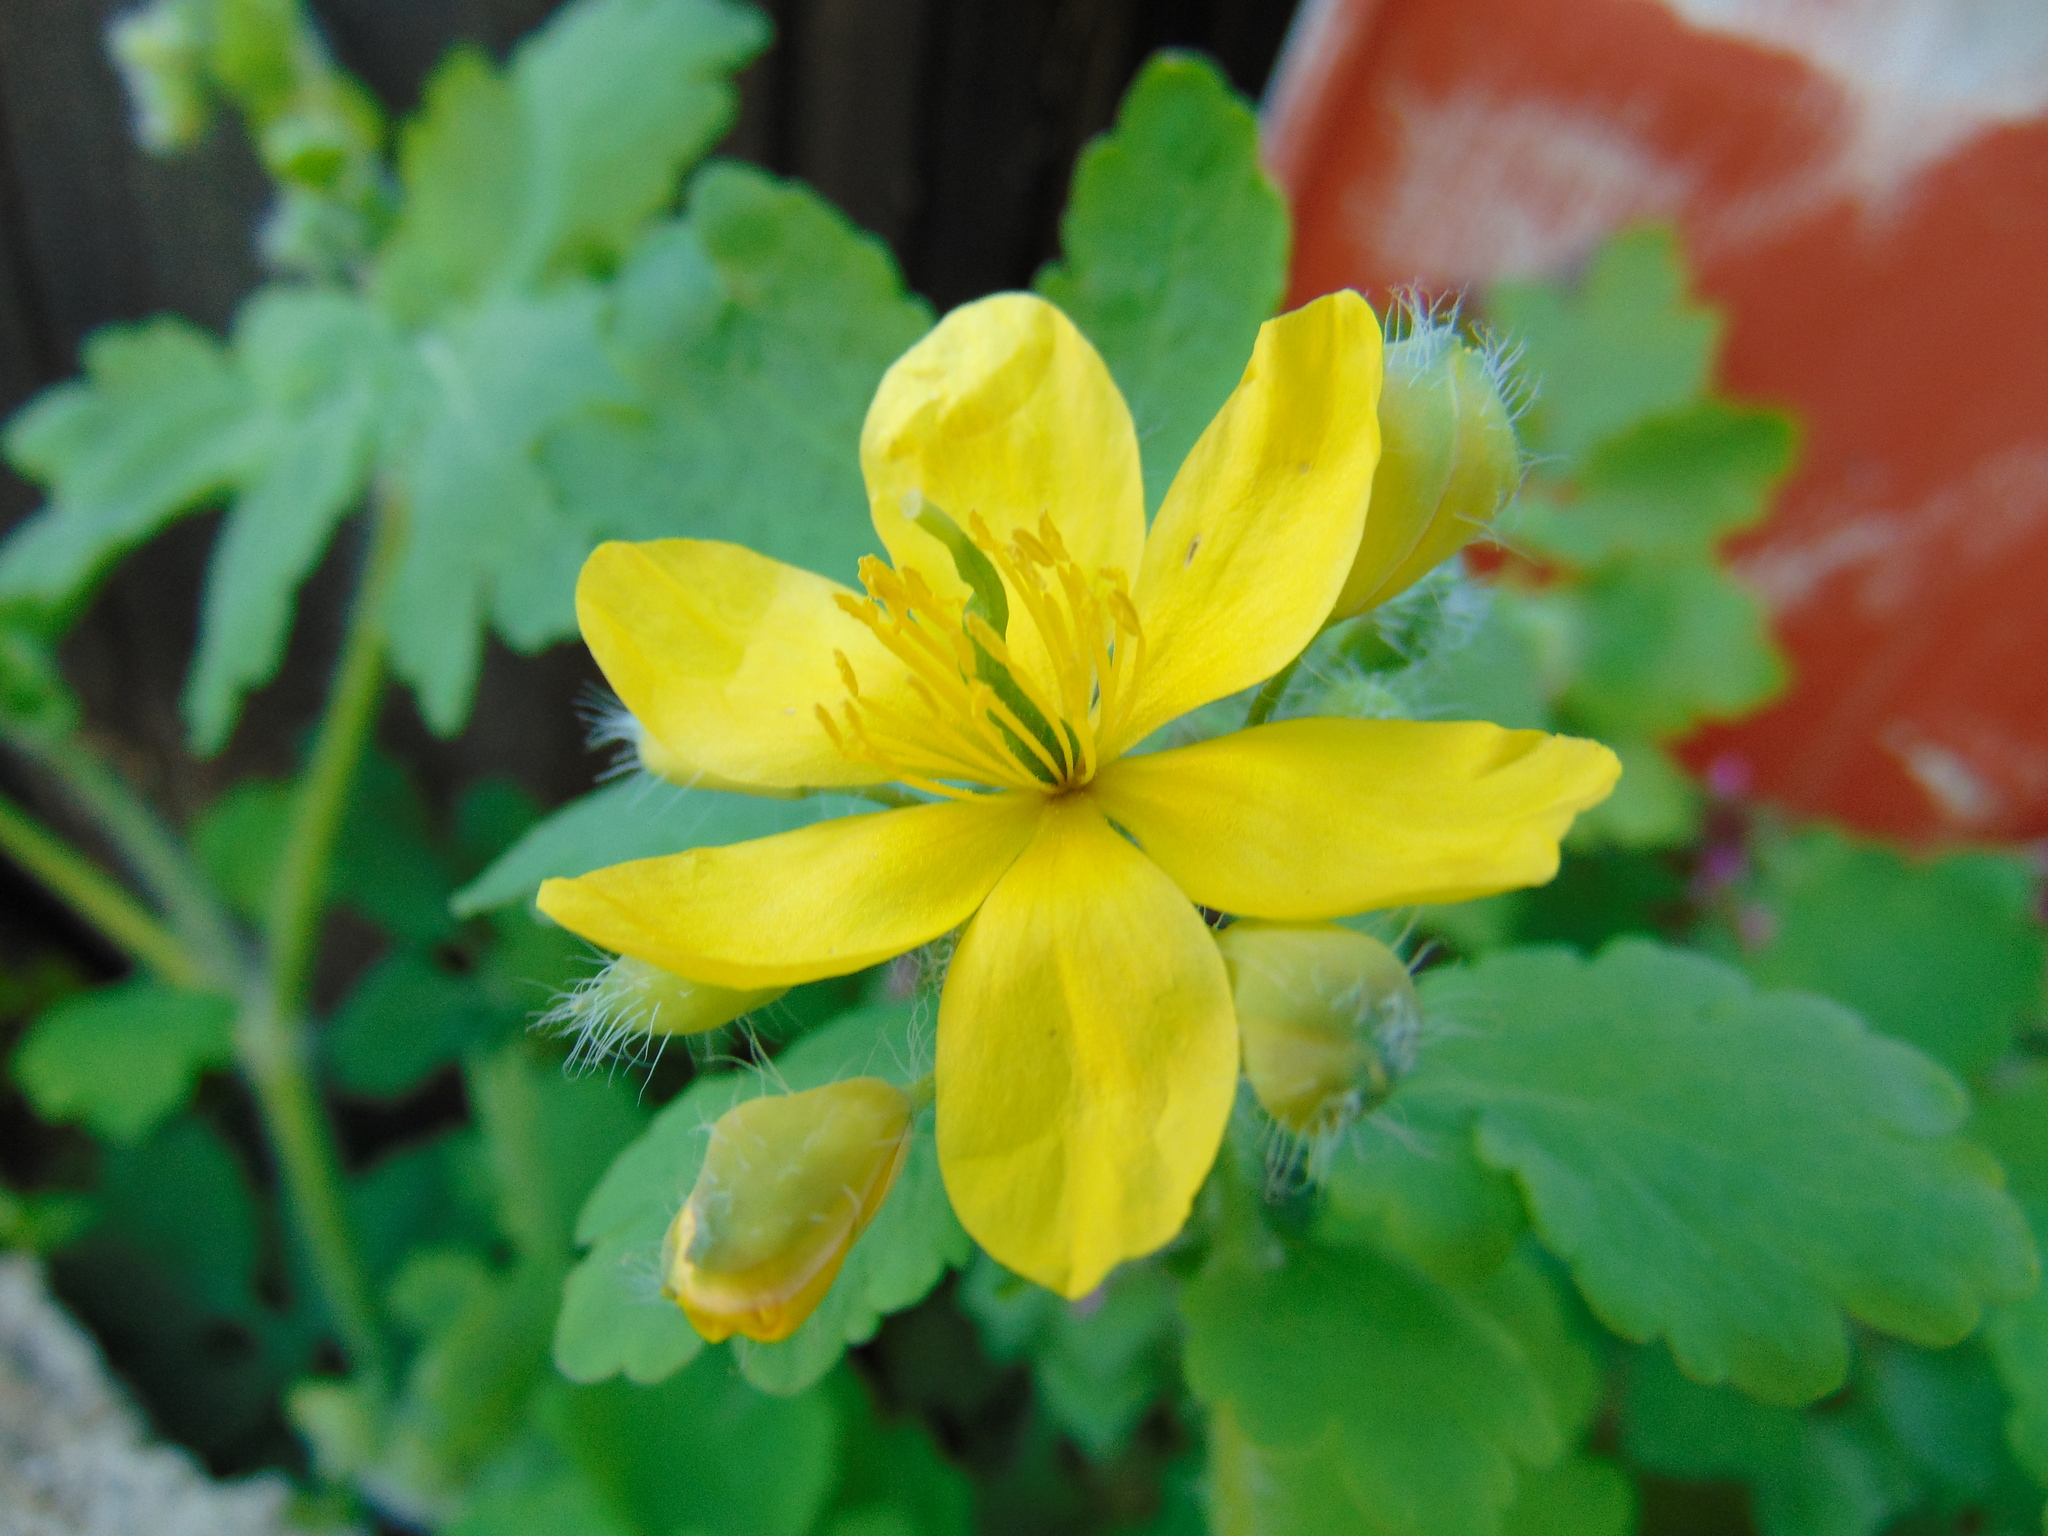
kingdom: Plantae
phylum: Tracheophyta
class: Magnoliopsida
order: Ranunculales
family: Papaveraceae
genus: Chelidonium
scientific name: Chelidonium majus
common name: Greater celandine
